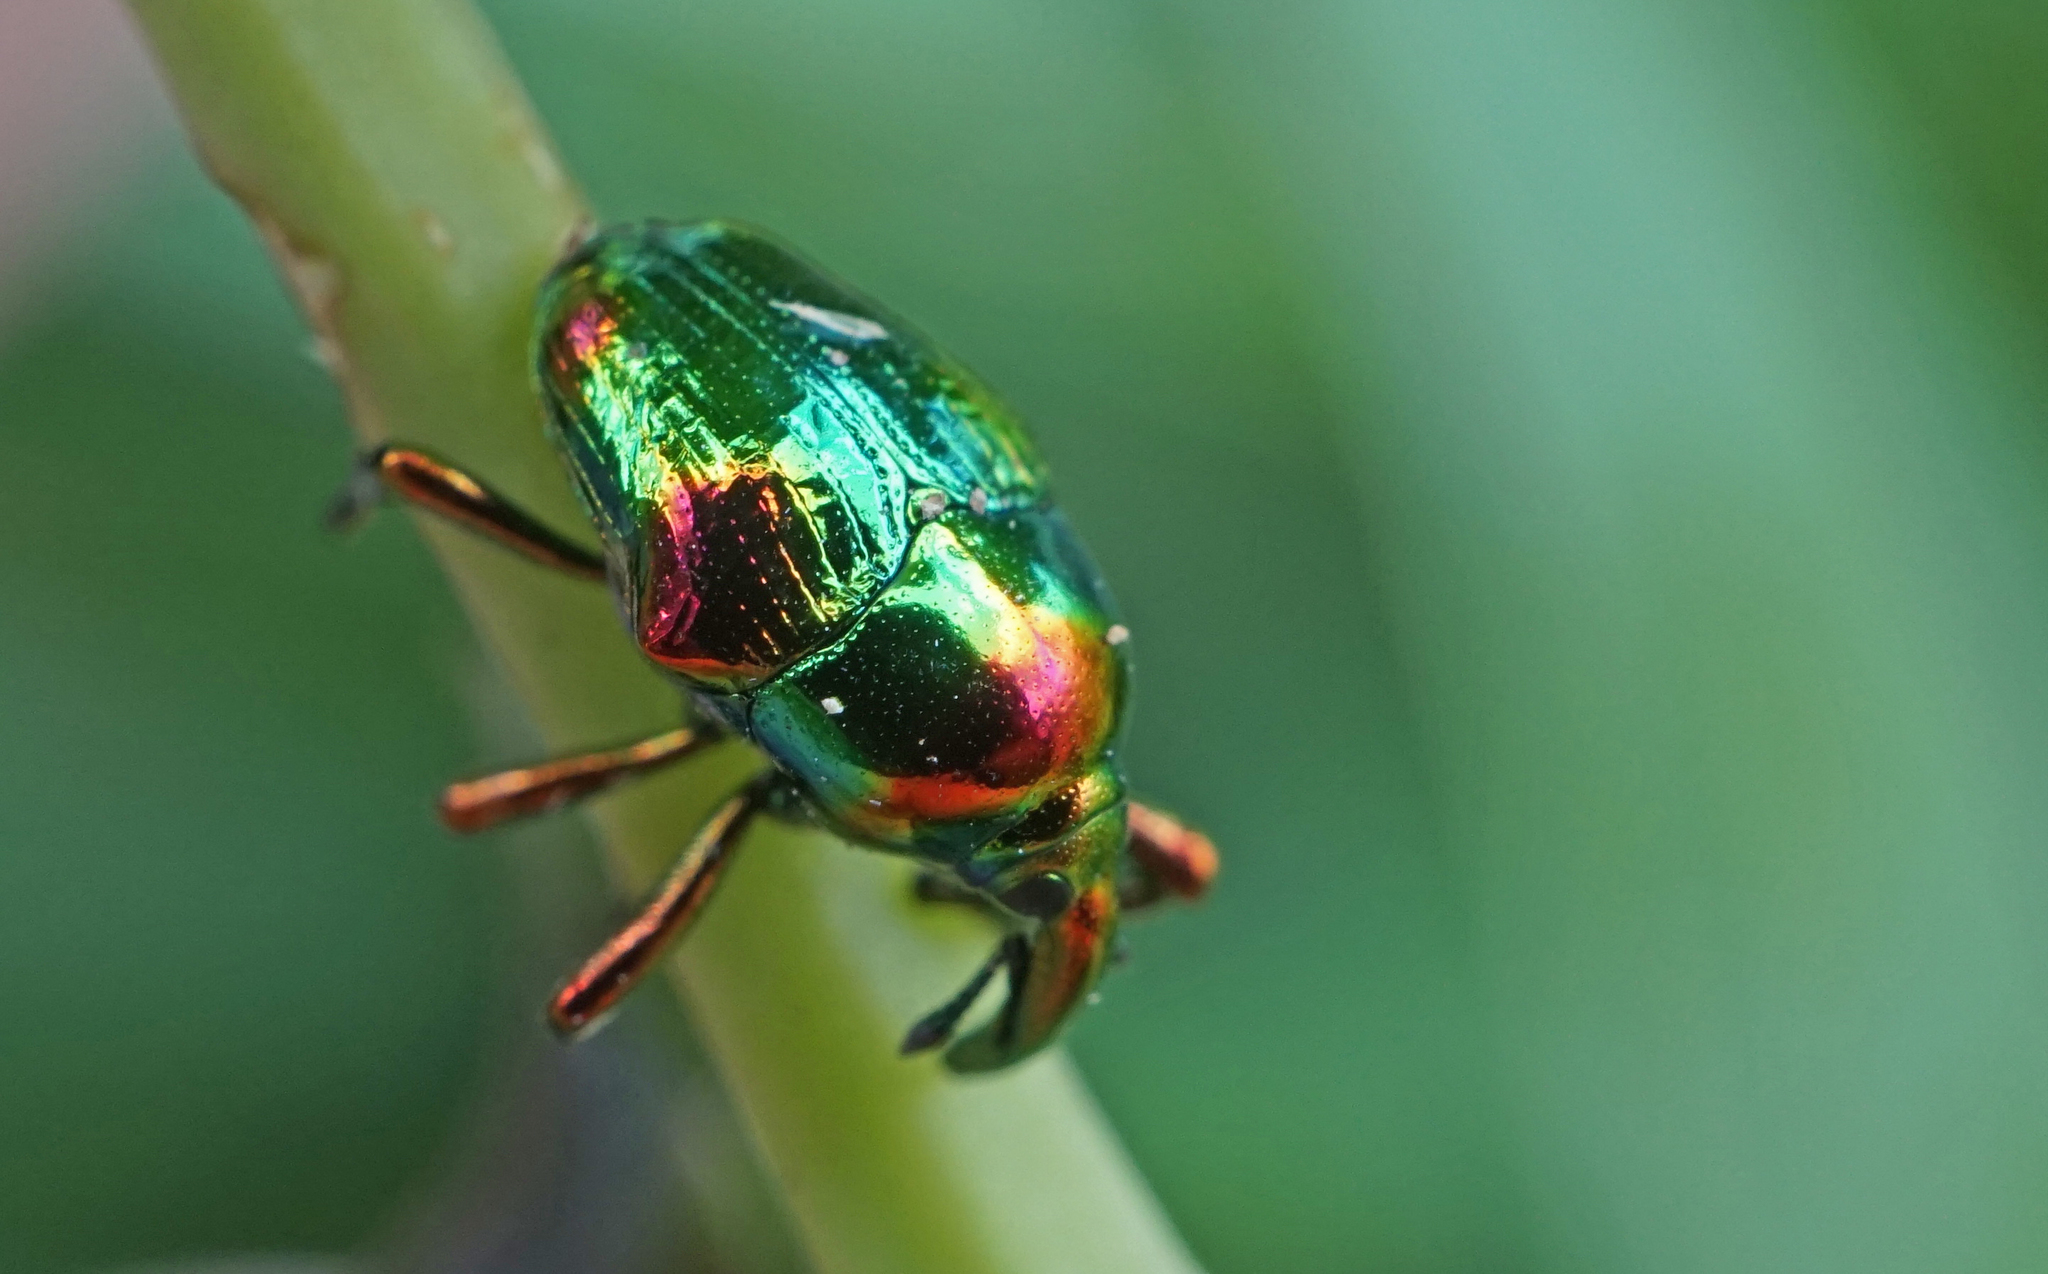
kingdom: Animalia
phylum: Arthropoda
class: Insecta
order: Coleoptera
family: Eurhynchidae
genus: Eurhinus
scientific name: Eurhinus magnificus
